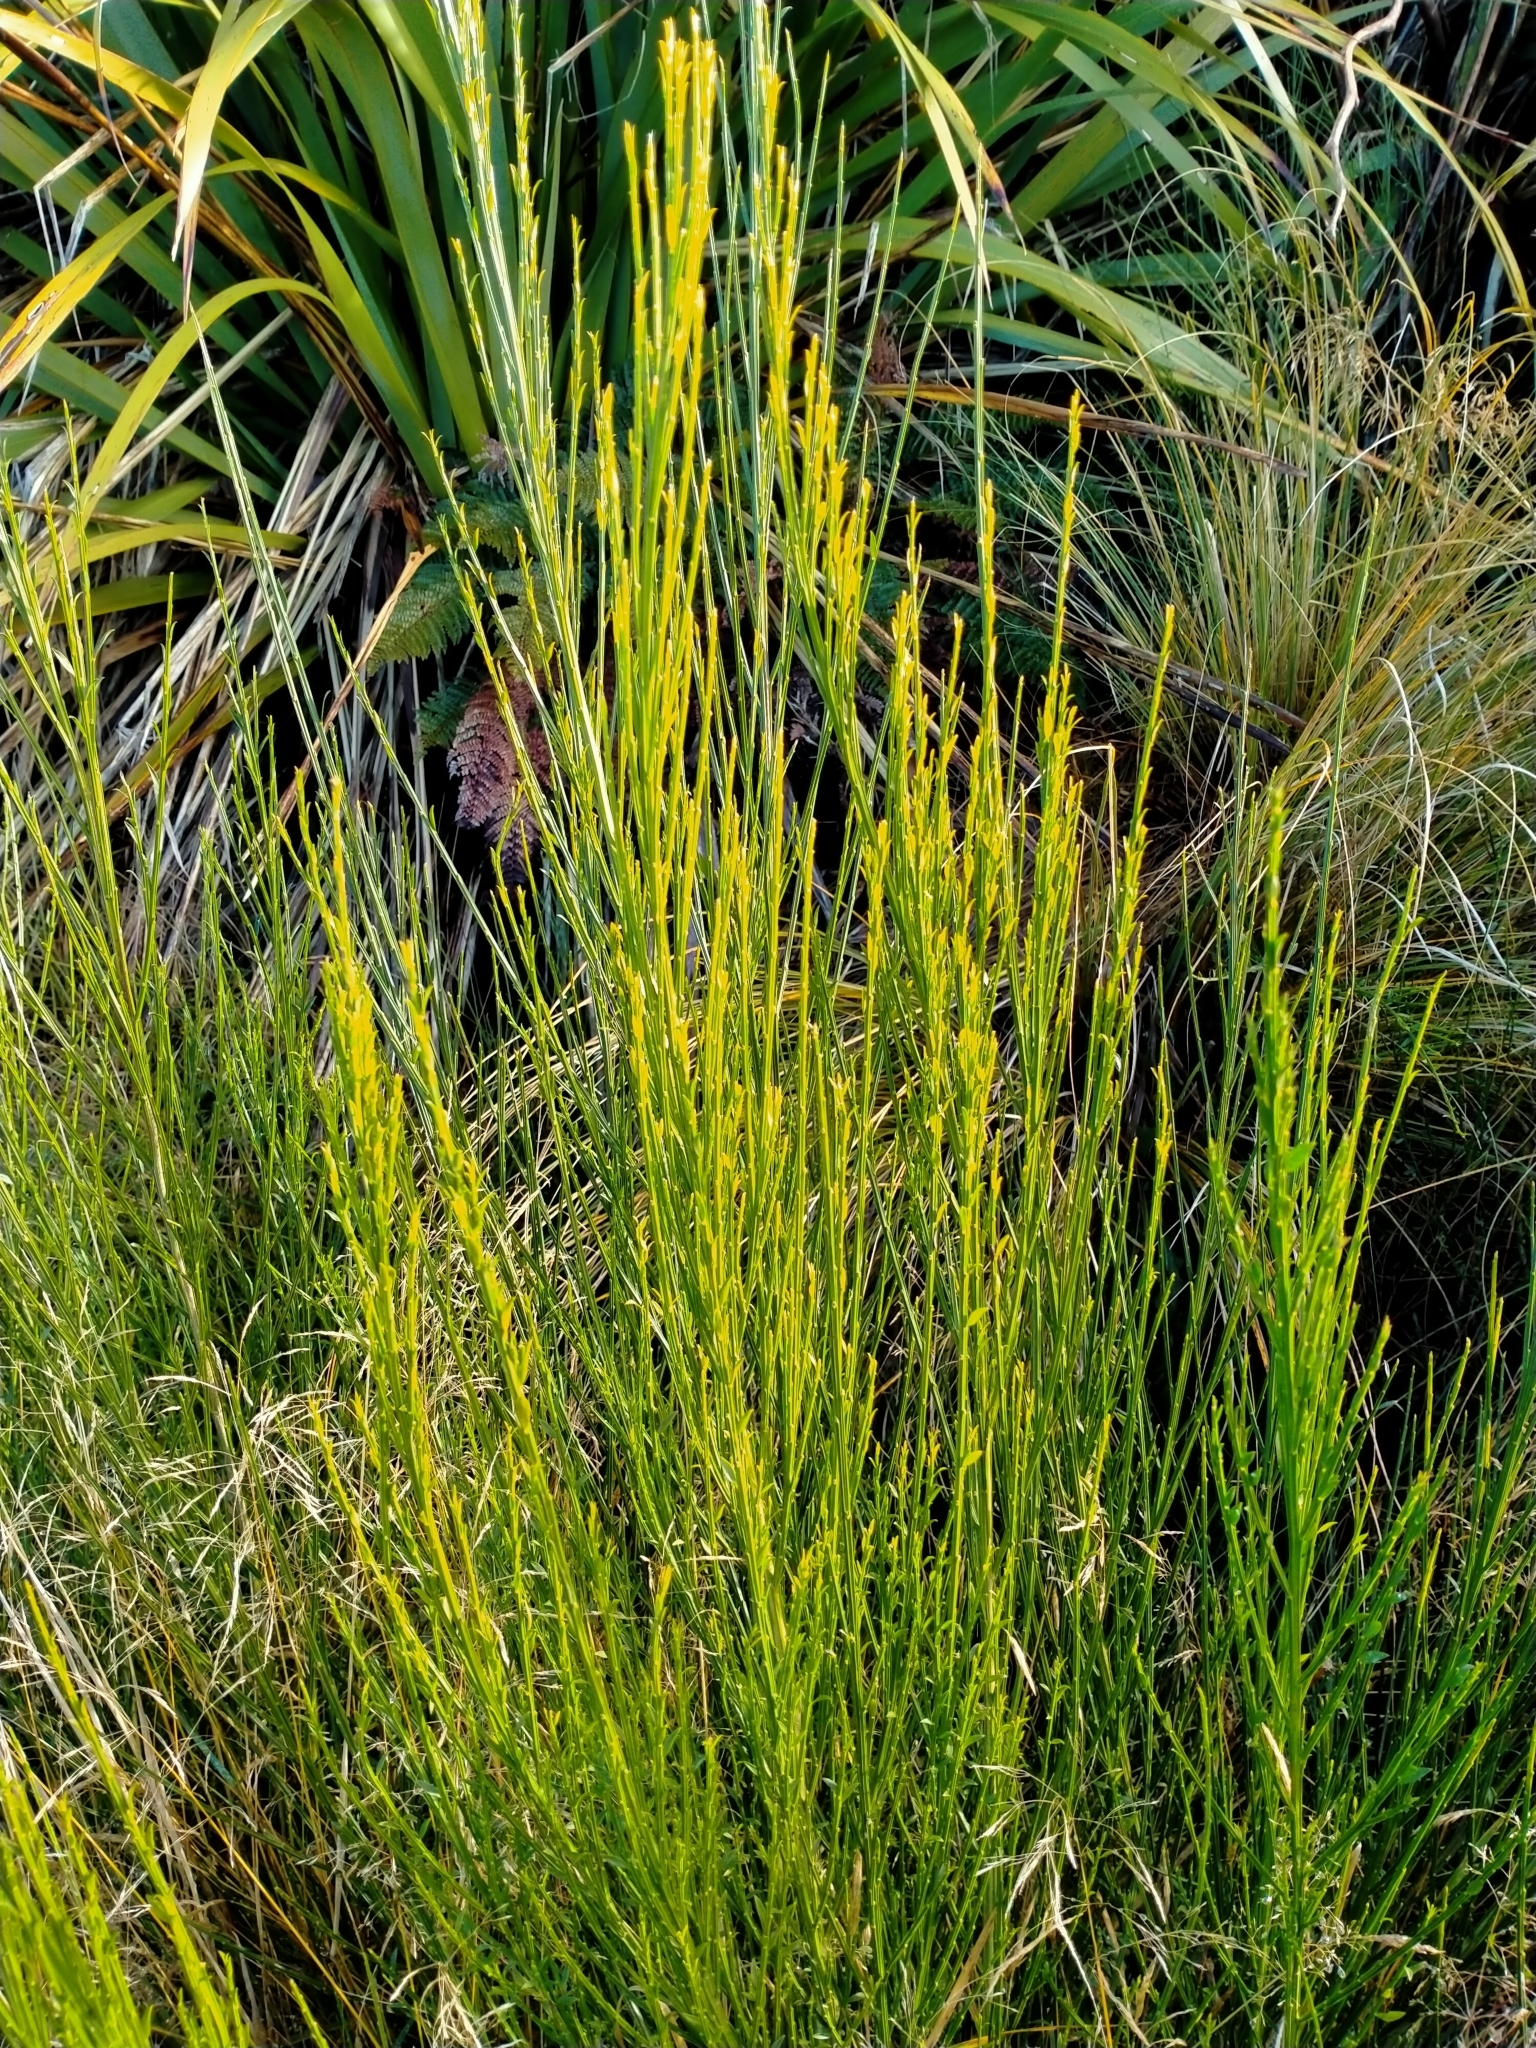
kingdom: Plantae
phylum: Tracheophyta
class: Magnoliopsida
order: Fabales
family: Fabaceae
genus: Cytisus
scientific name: Cytisus scoparius
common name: Scotch broom
